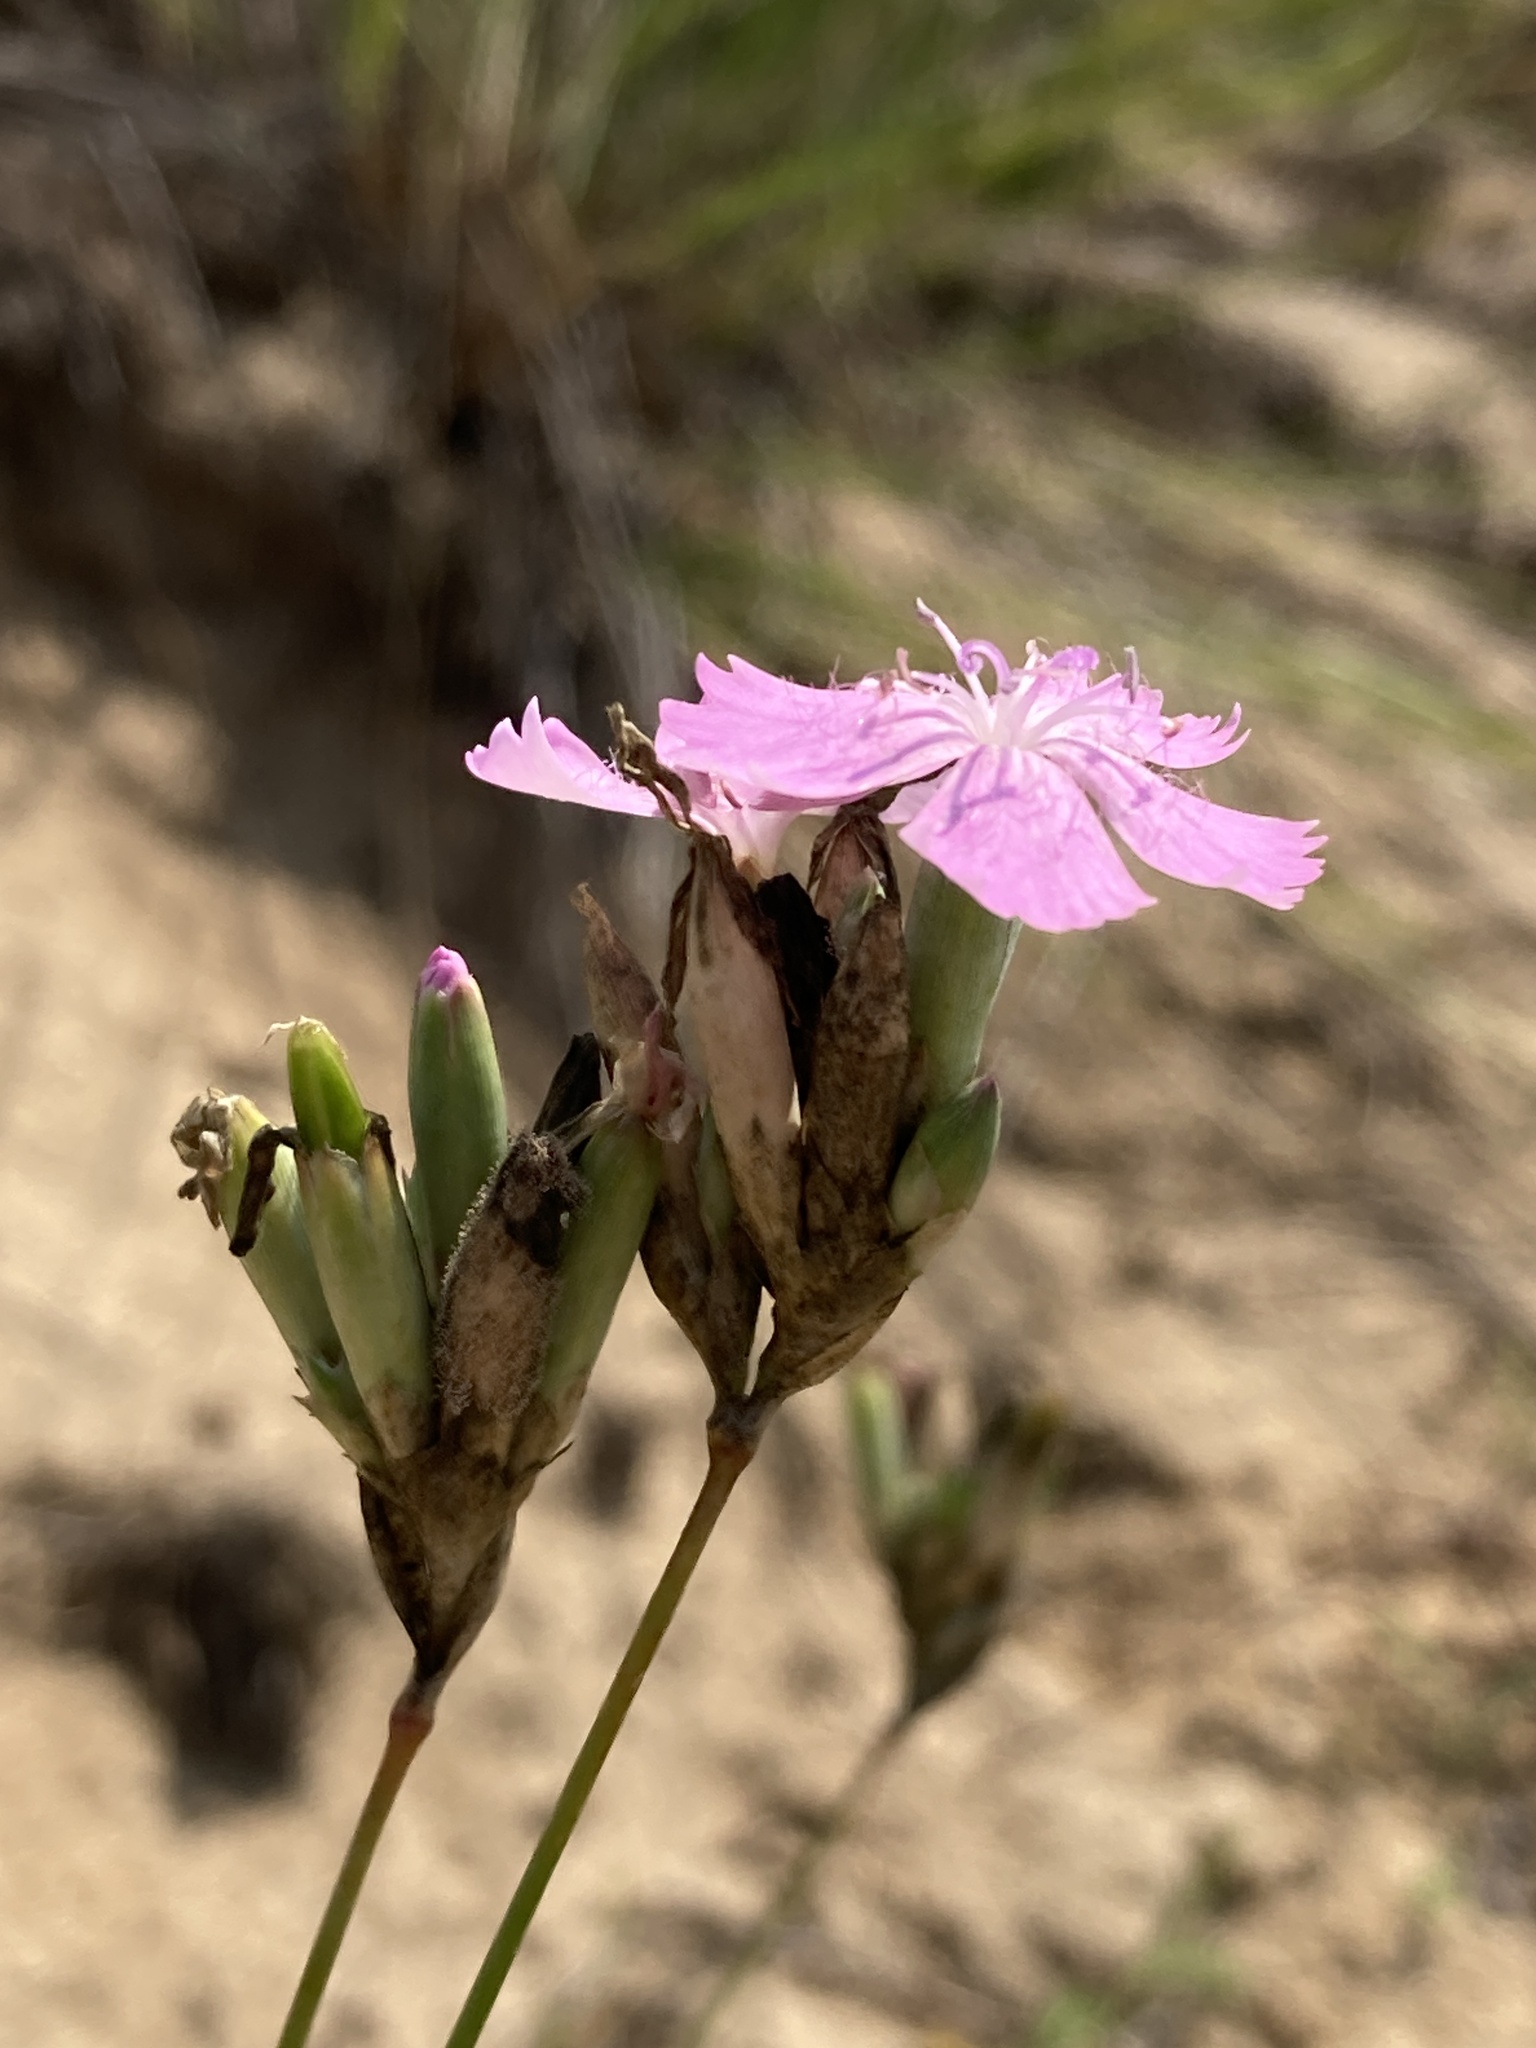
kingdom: Plantae
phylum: Tracheophyta
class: Magnoliopsida
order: Caryophyllales
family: Caryophyllaceae
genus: Dianthus
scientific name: Dianthus polymorphus
